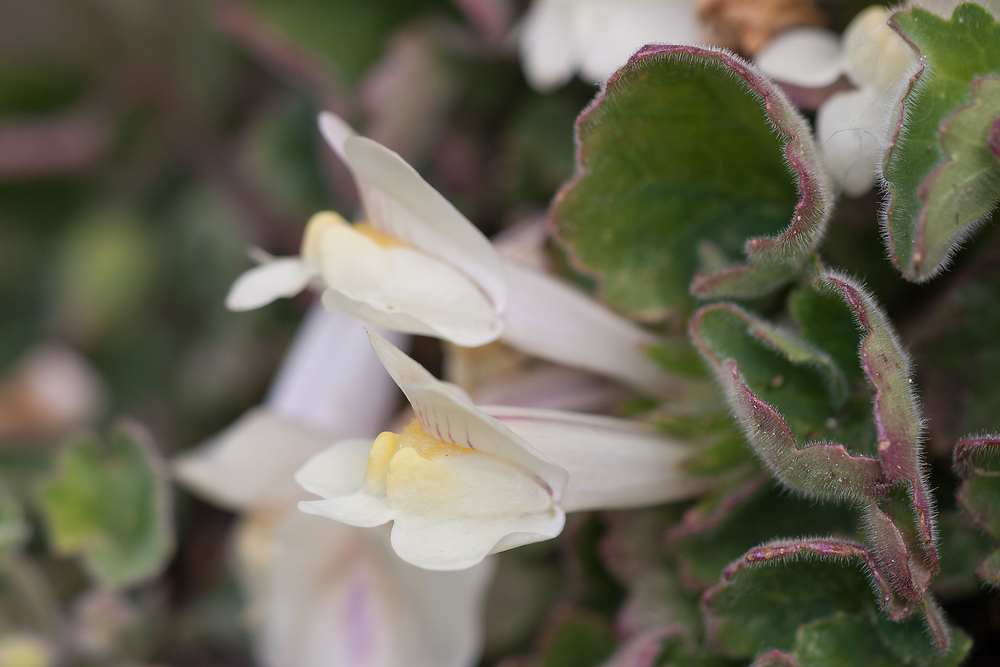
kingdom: Plantae
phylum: Tracheophyta
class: Magnoliopsida
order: Lamiales
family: Plantaginaceae
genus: Asarina
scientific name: Asarina procumbens
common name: Trailing snapdragon
